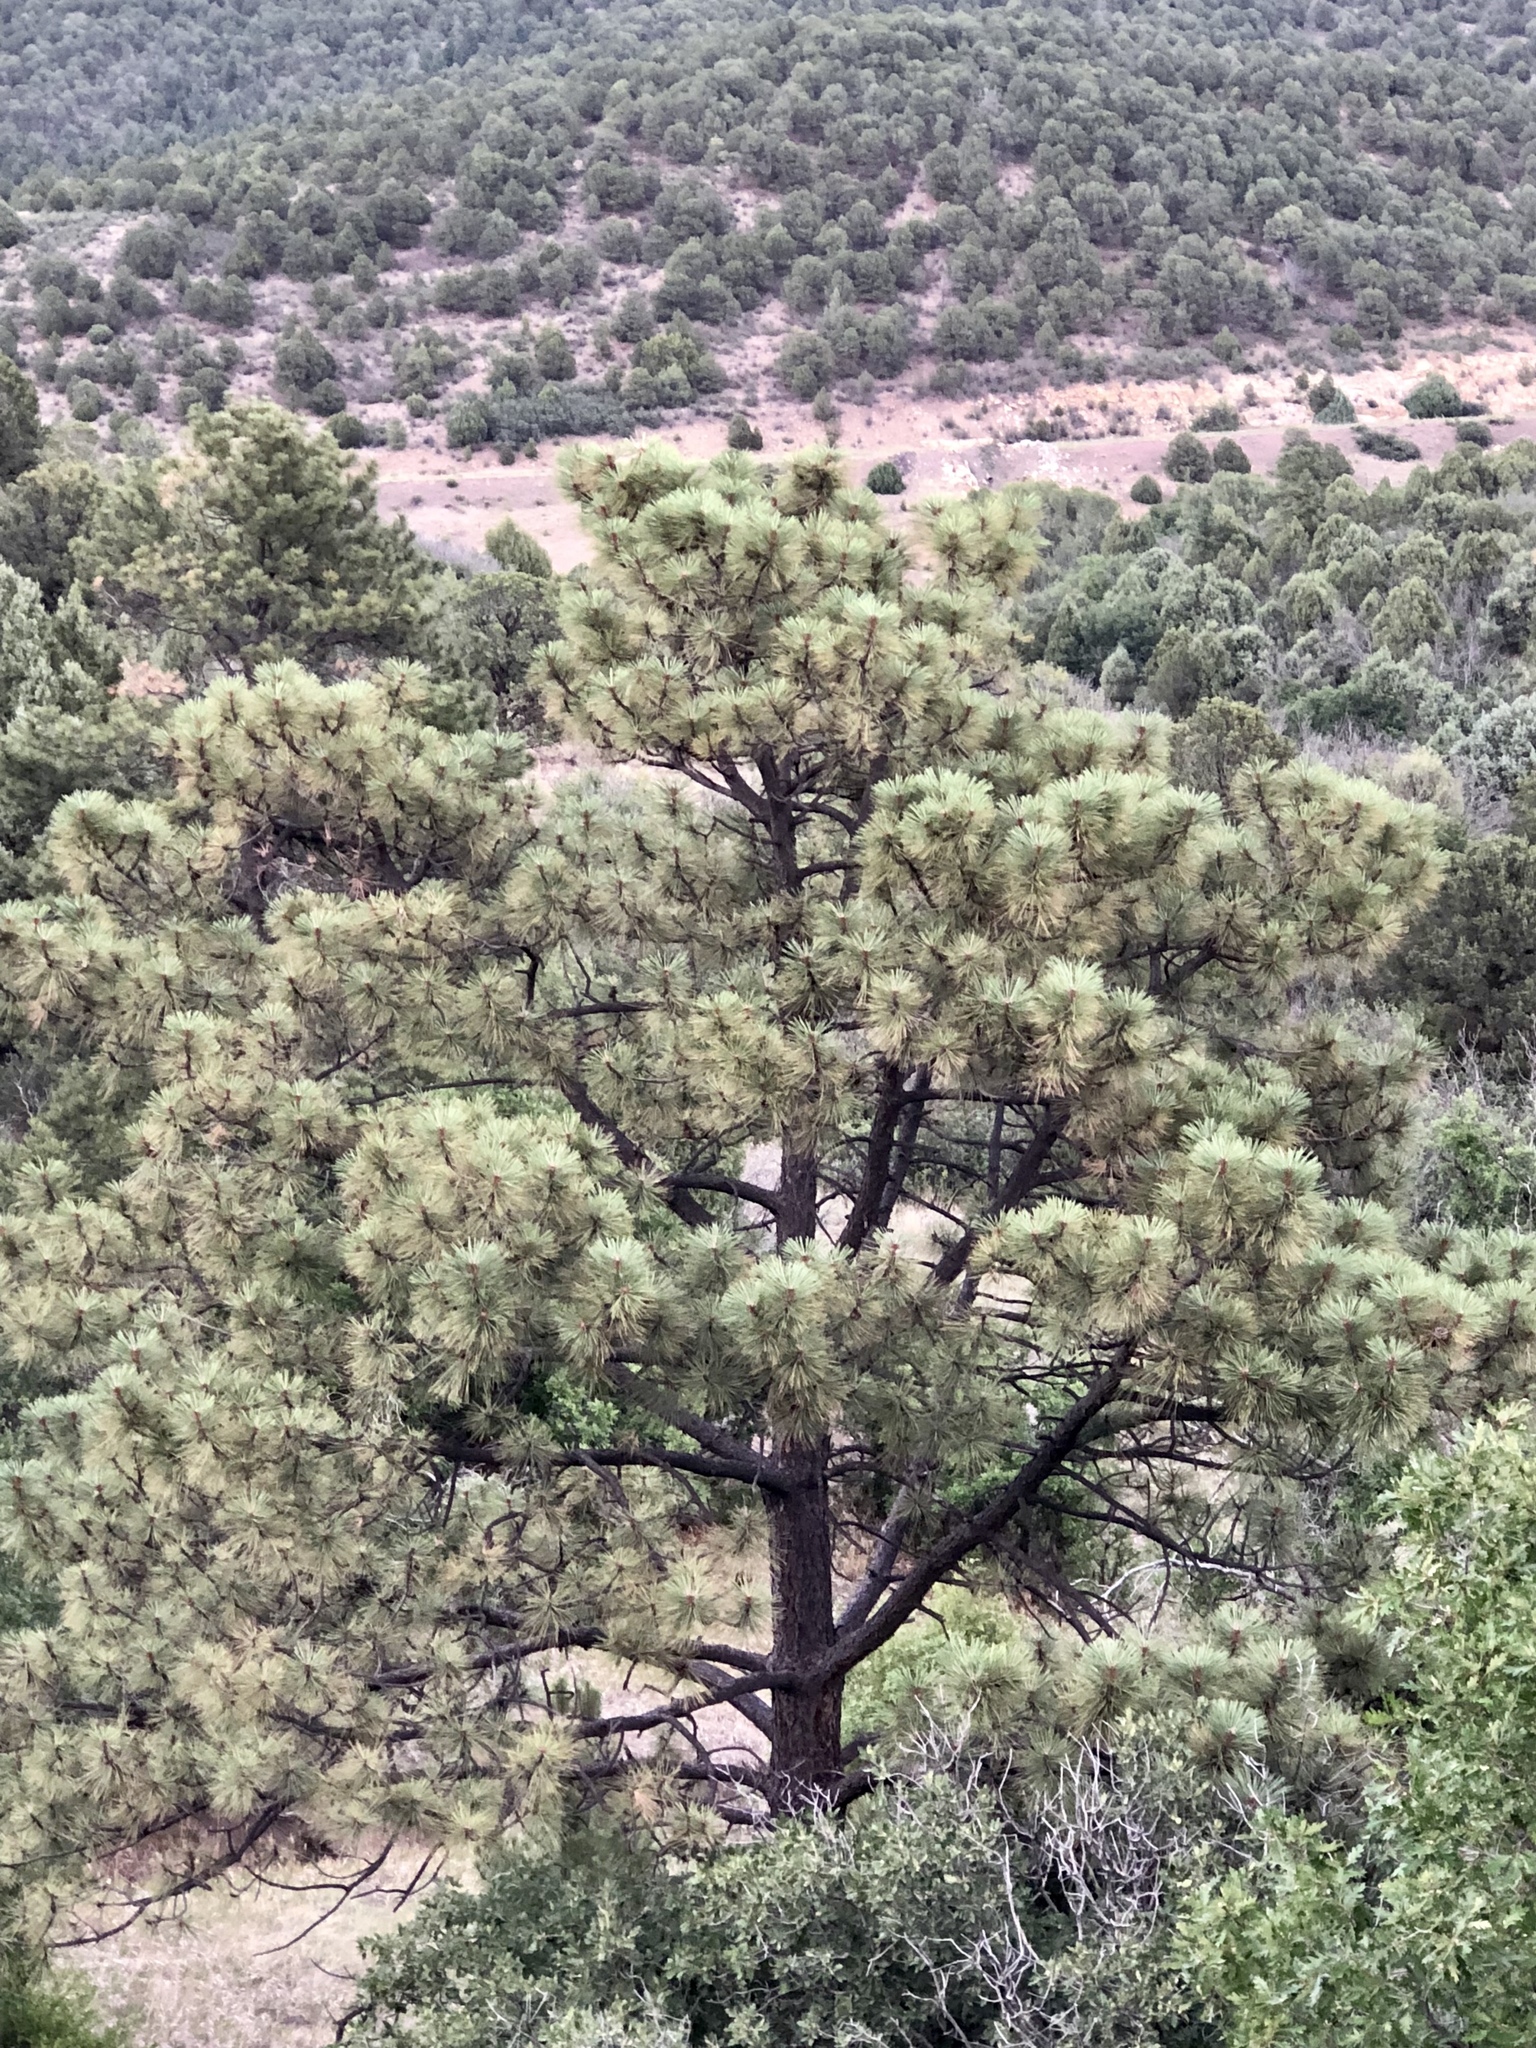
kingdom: Plantae
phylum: Tracheophyta
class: Pinopsida
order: Pinales
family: Pinaceae
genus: Pinus
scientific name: Pinus ponderosa
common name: Western yellow-pine
